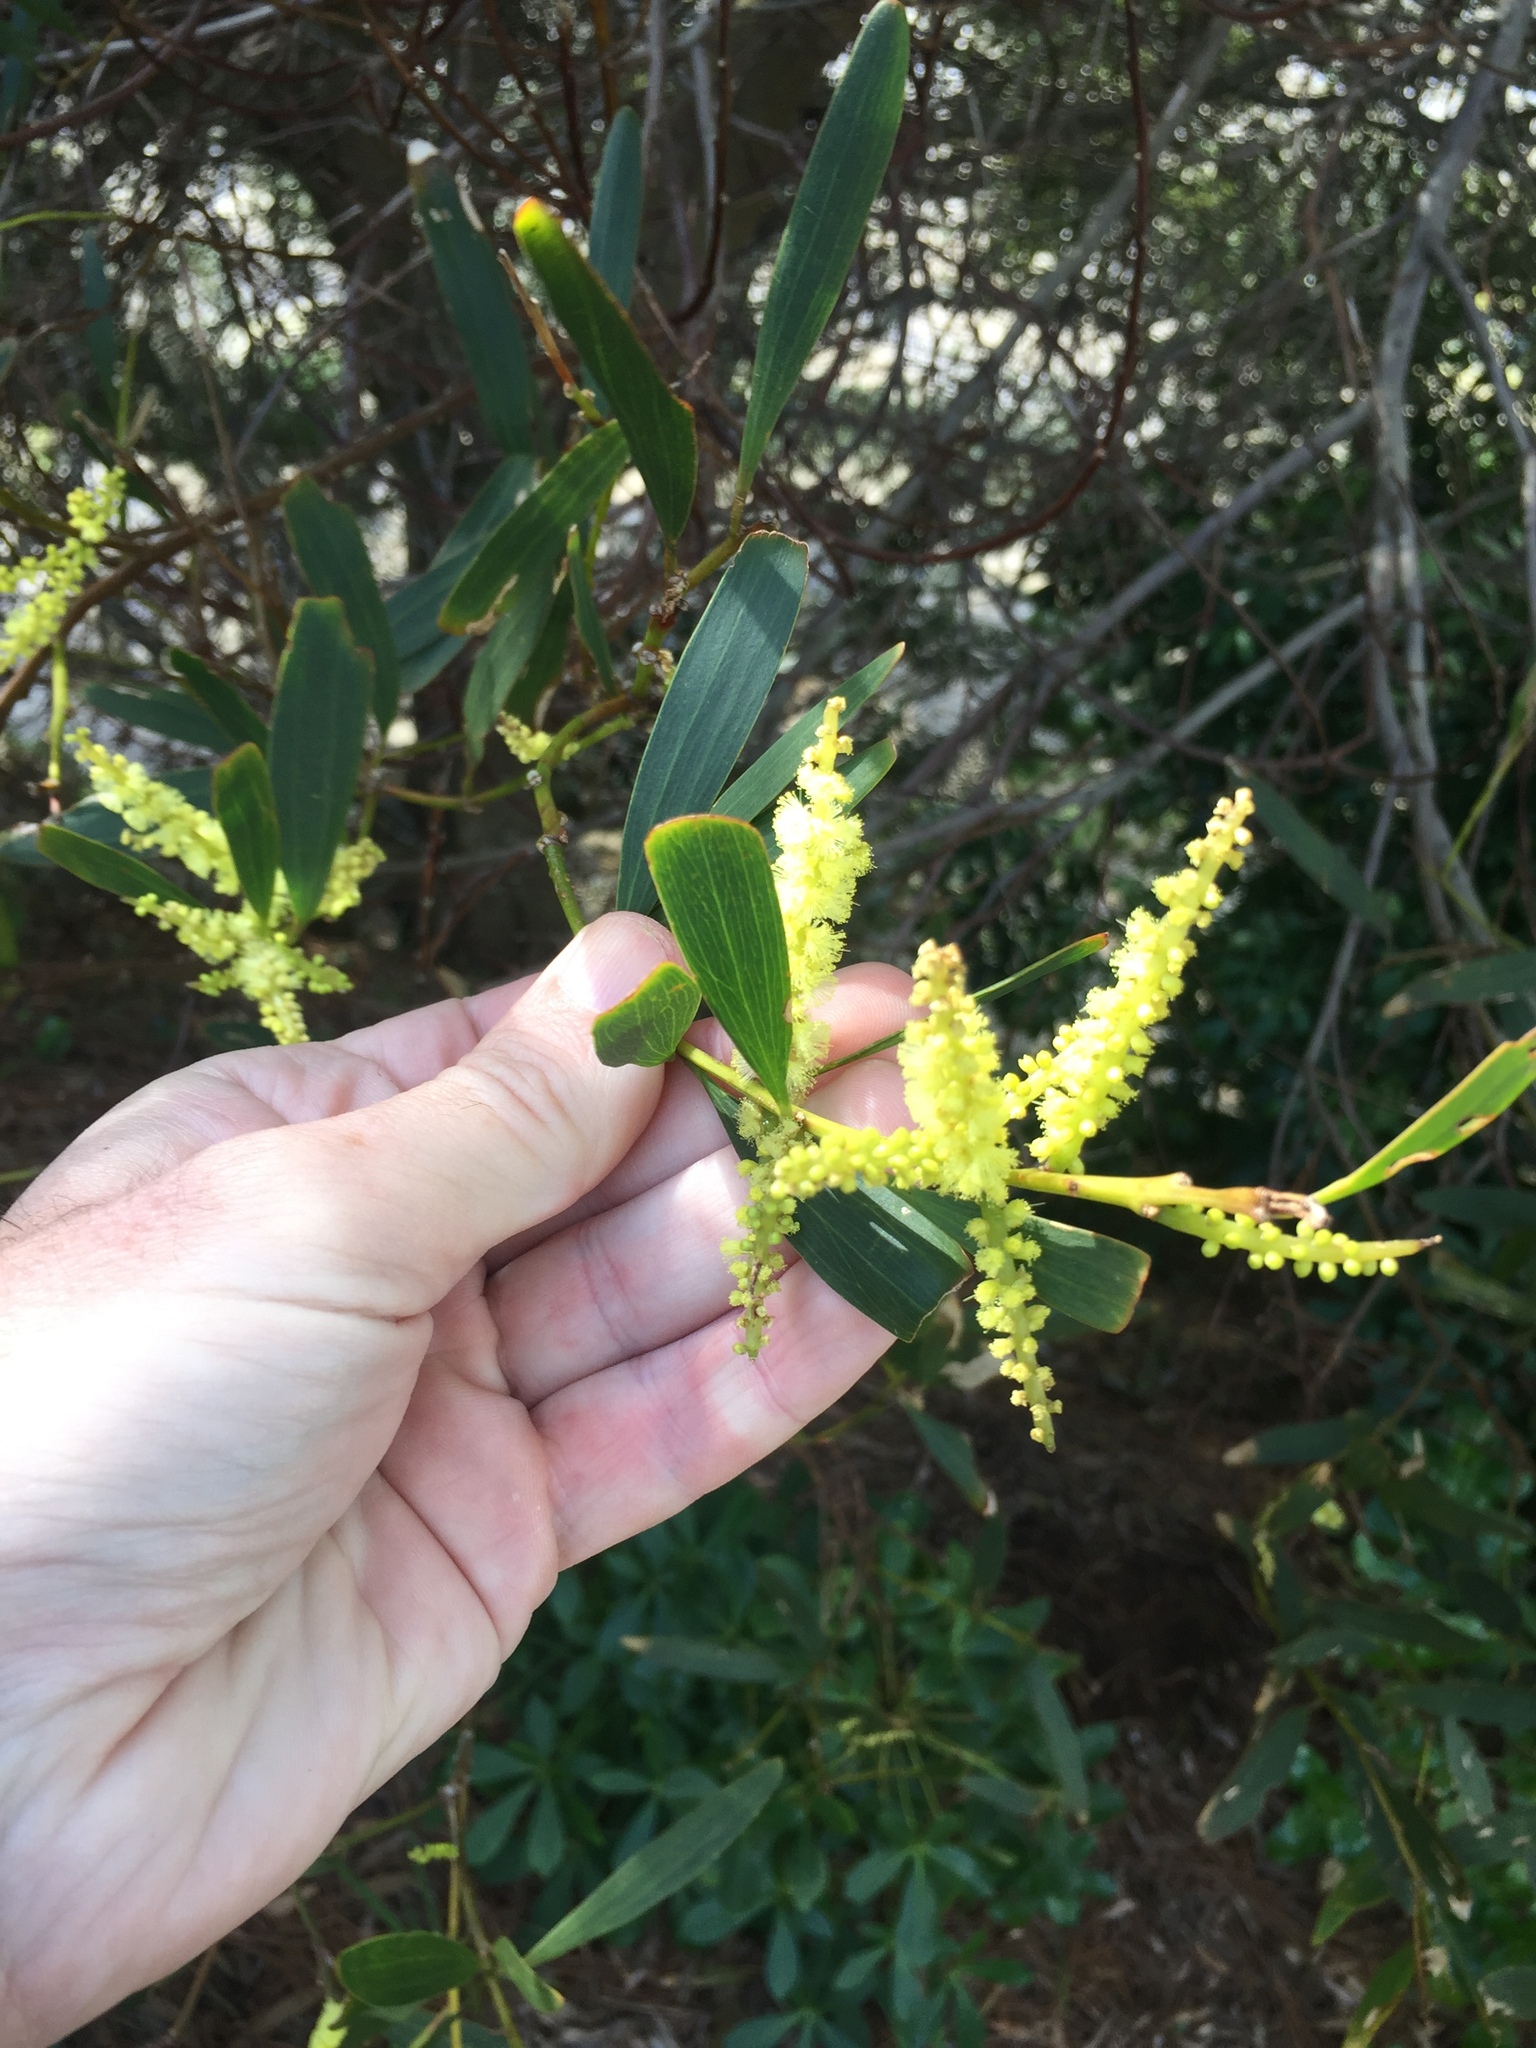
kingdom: Plantae
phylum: Tracheophyta
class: Magnoliopsida
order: Fabales
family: Fabaceae
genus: Acacia
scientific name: Acacia longifolia
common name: Sydney golden wattle
